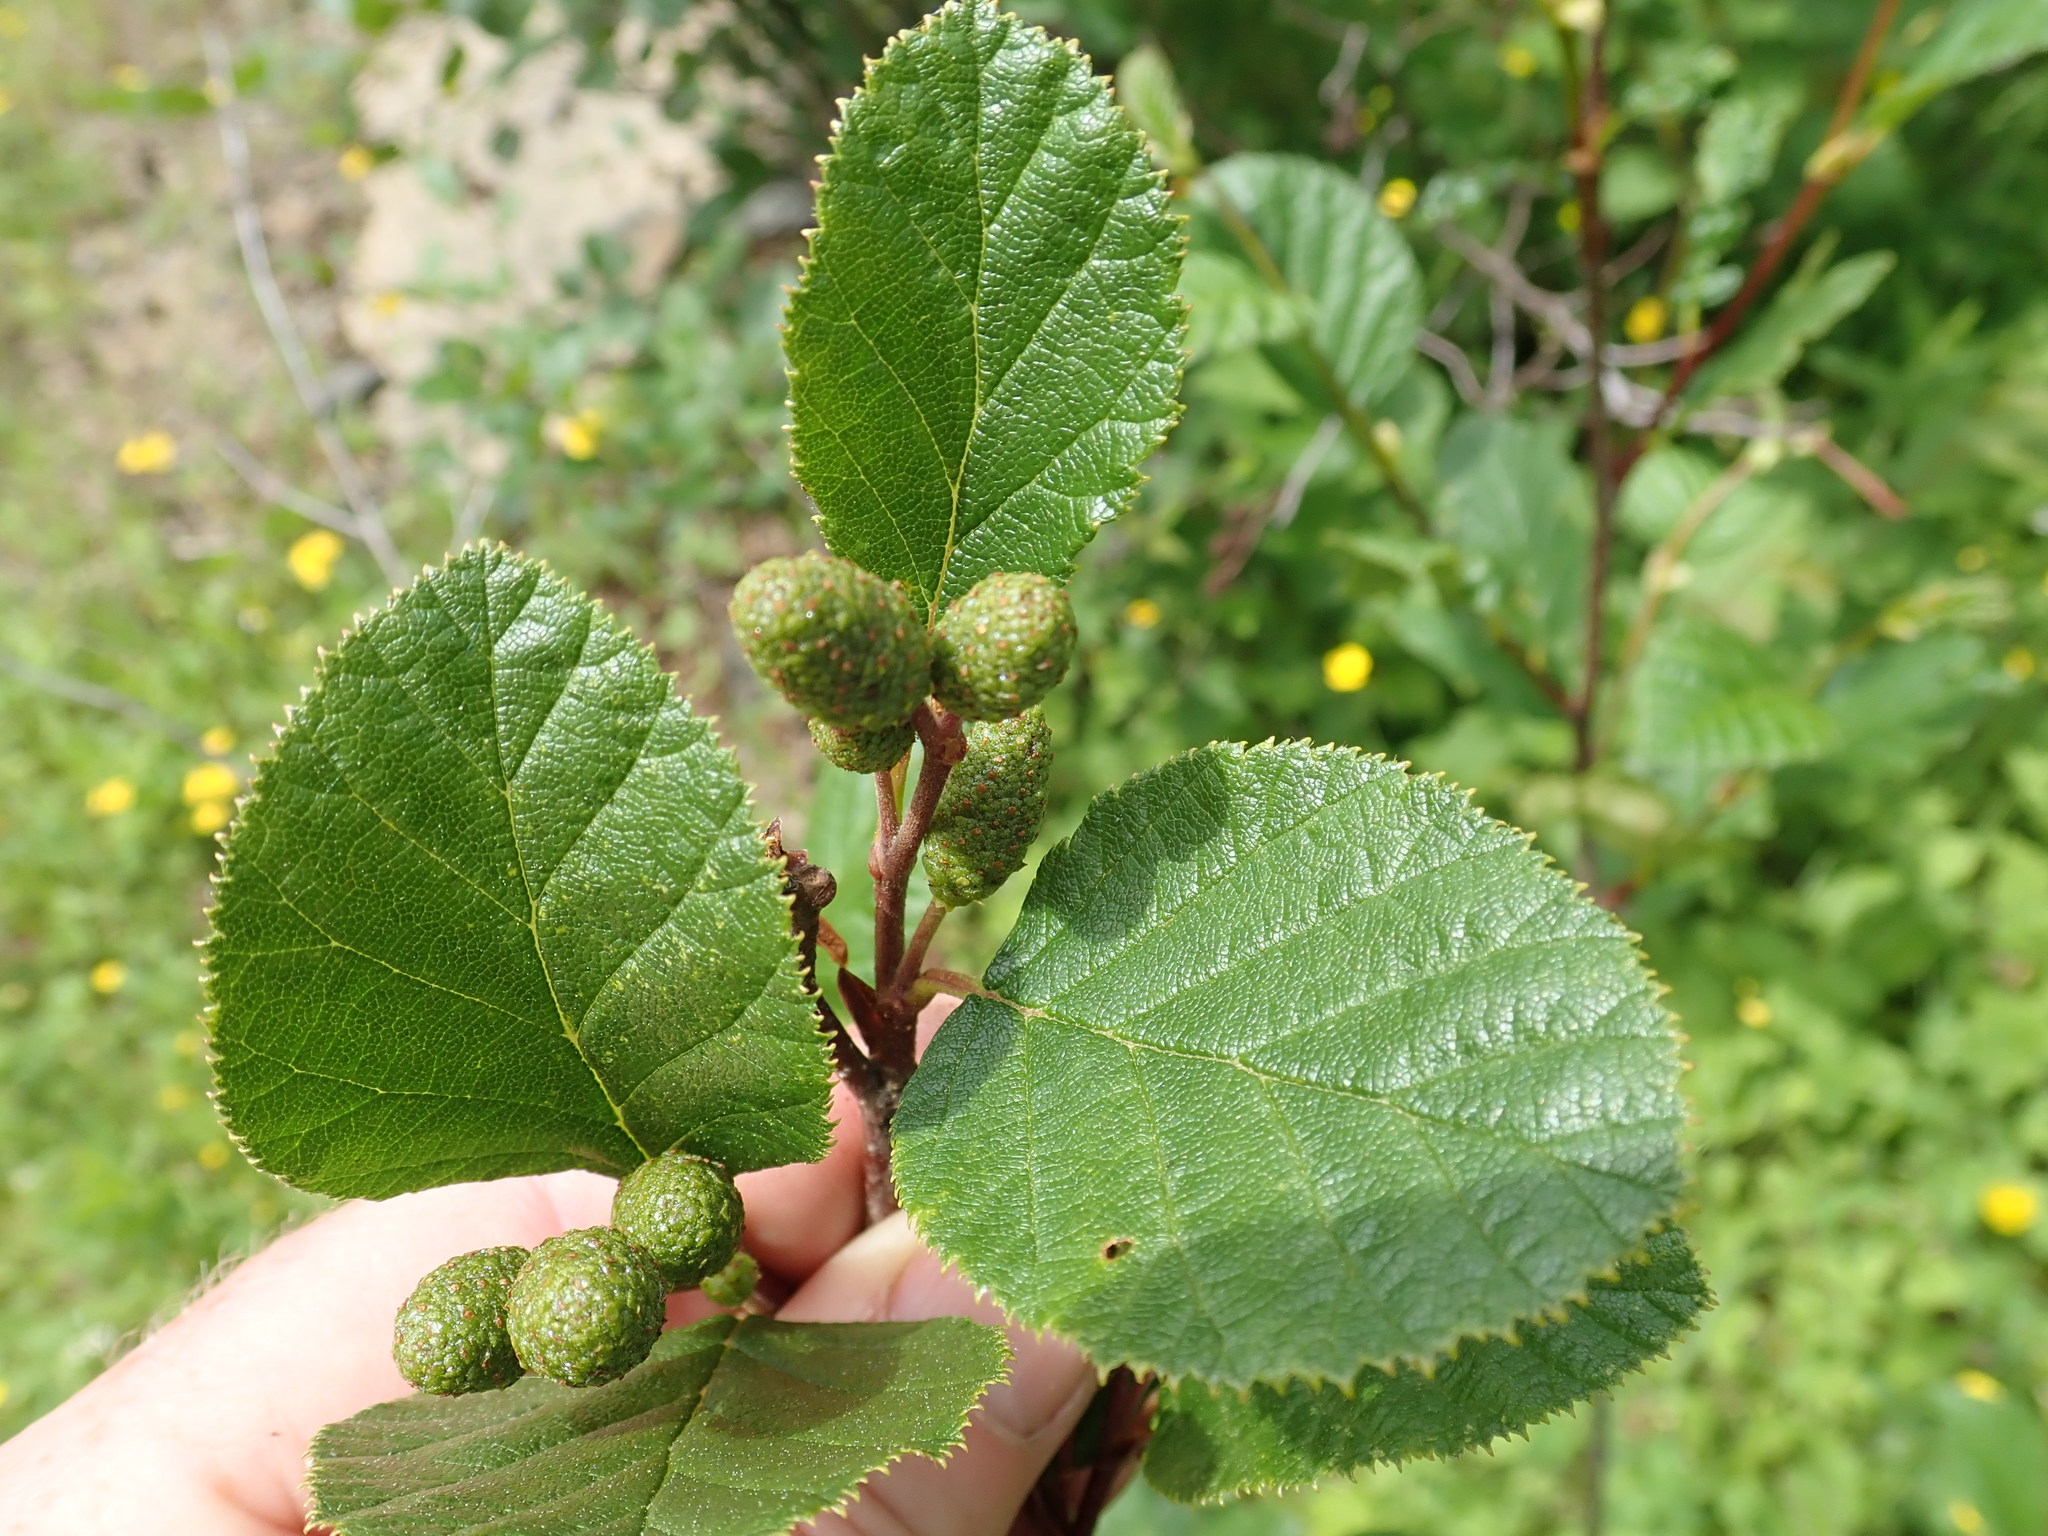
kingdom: Plantae
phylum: Tracheophyta
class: Magnoliopsida
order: Fagales
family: Betulaceae
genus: Alnus
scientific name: Alnus alnobetula
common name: Green alder
